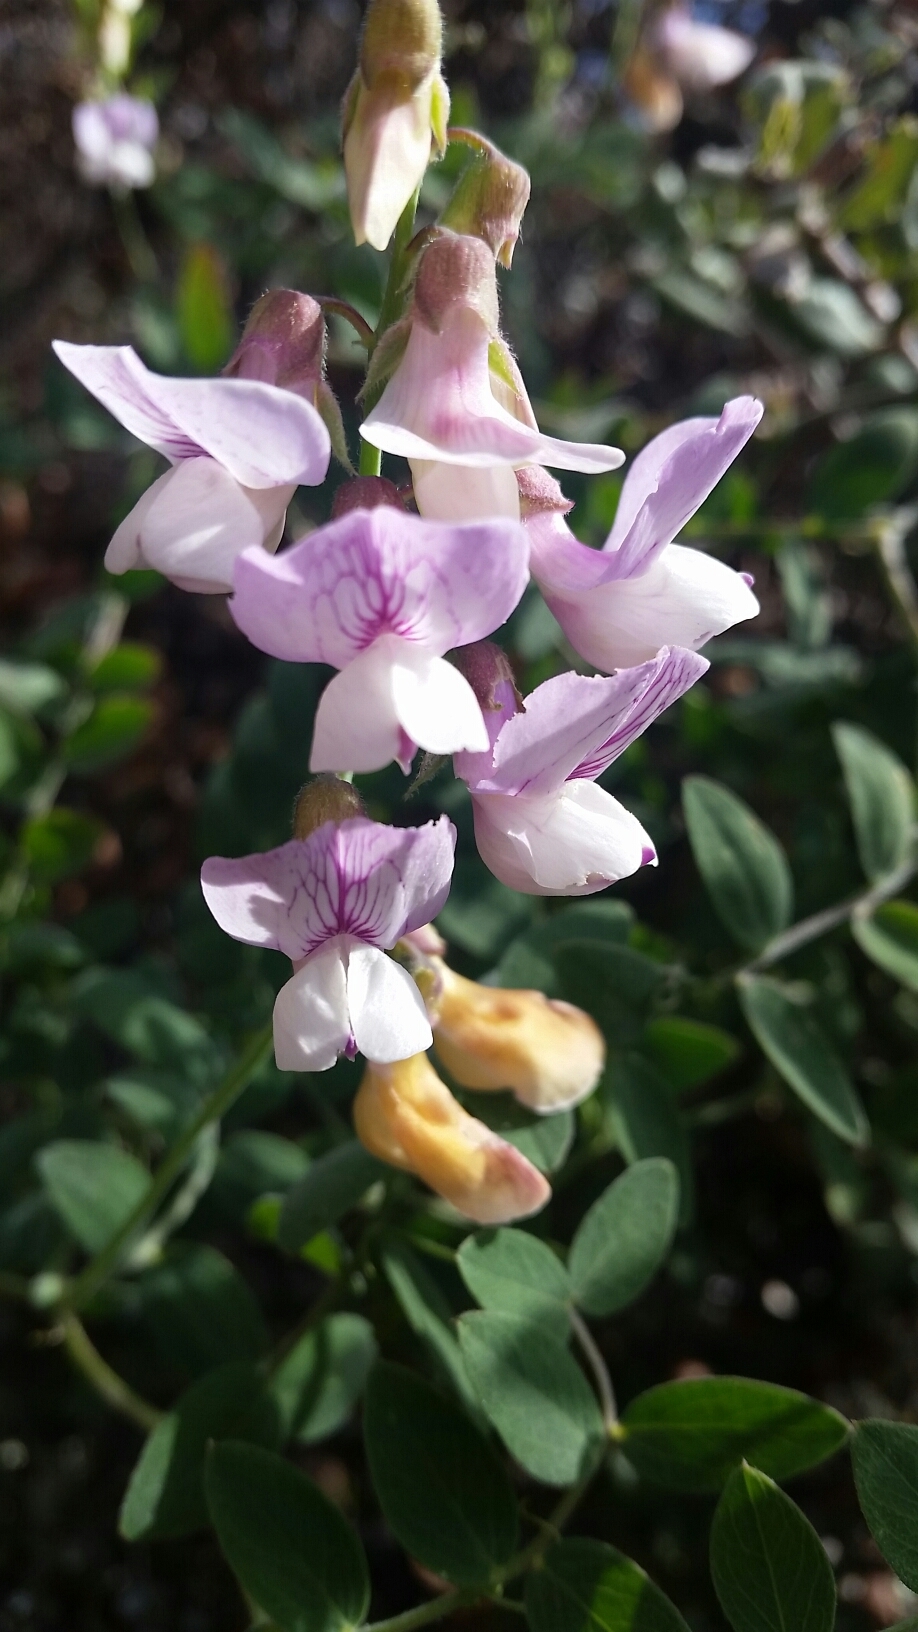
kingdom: Plantae
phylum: Tracheophyta
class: Magnoliopsida
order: Fabales
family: Fabaceae
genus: Lathyrus
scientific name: Lathyrus vestitus
